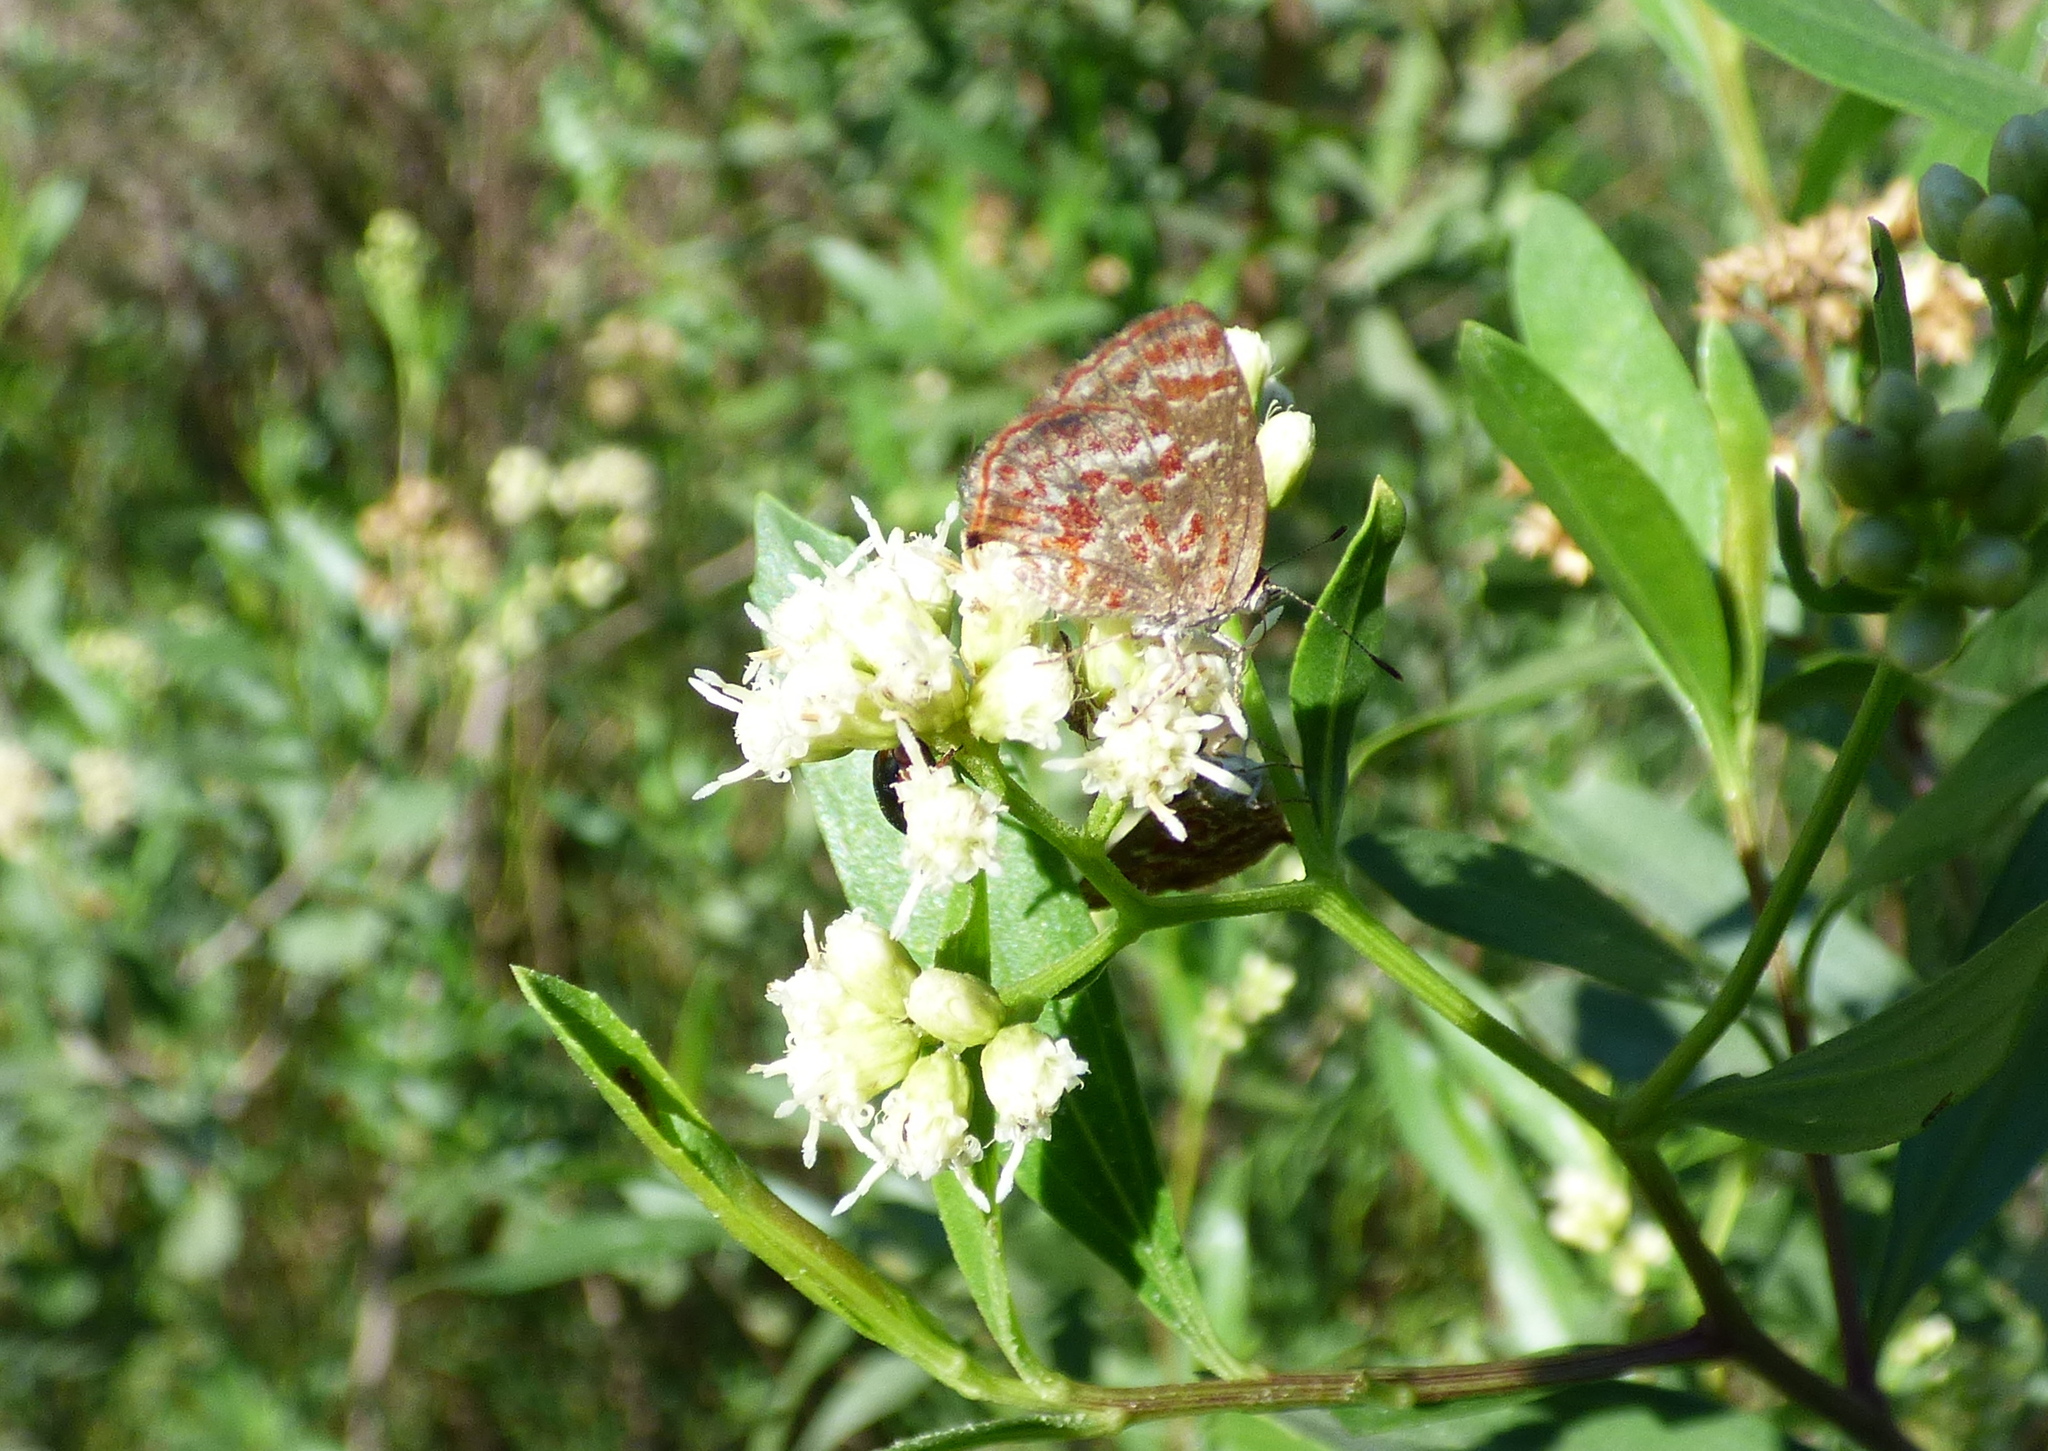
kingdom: Animalia
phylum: Arthropoda
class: Insecta
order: Lepidoptera
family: Lycaenidae
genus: Ministrymon
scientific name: Ministrymon
